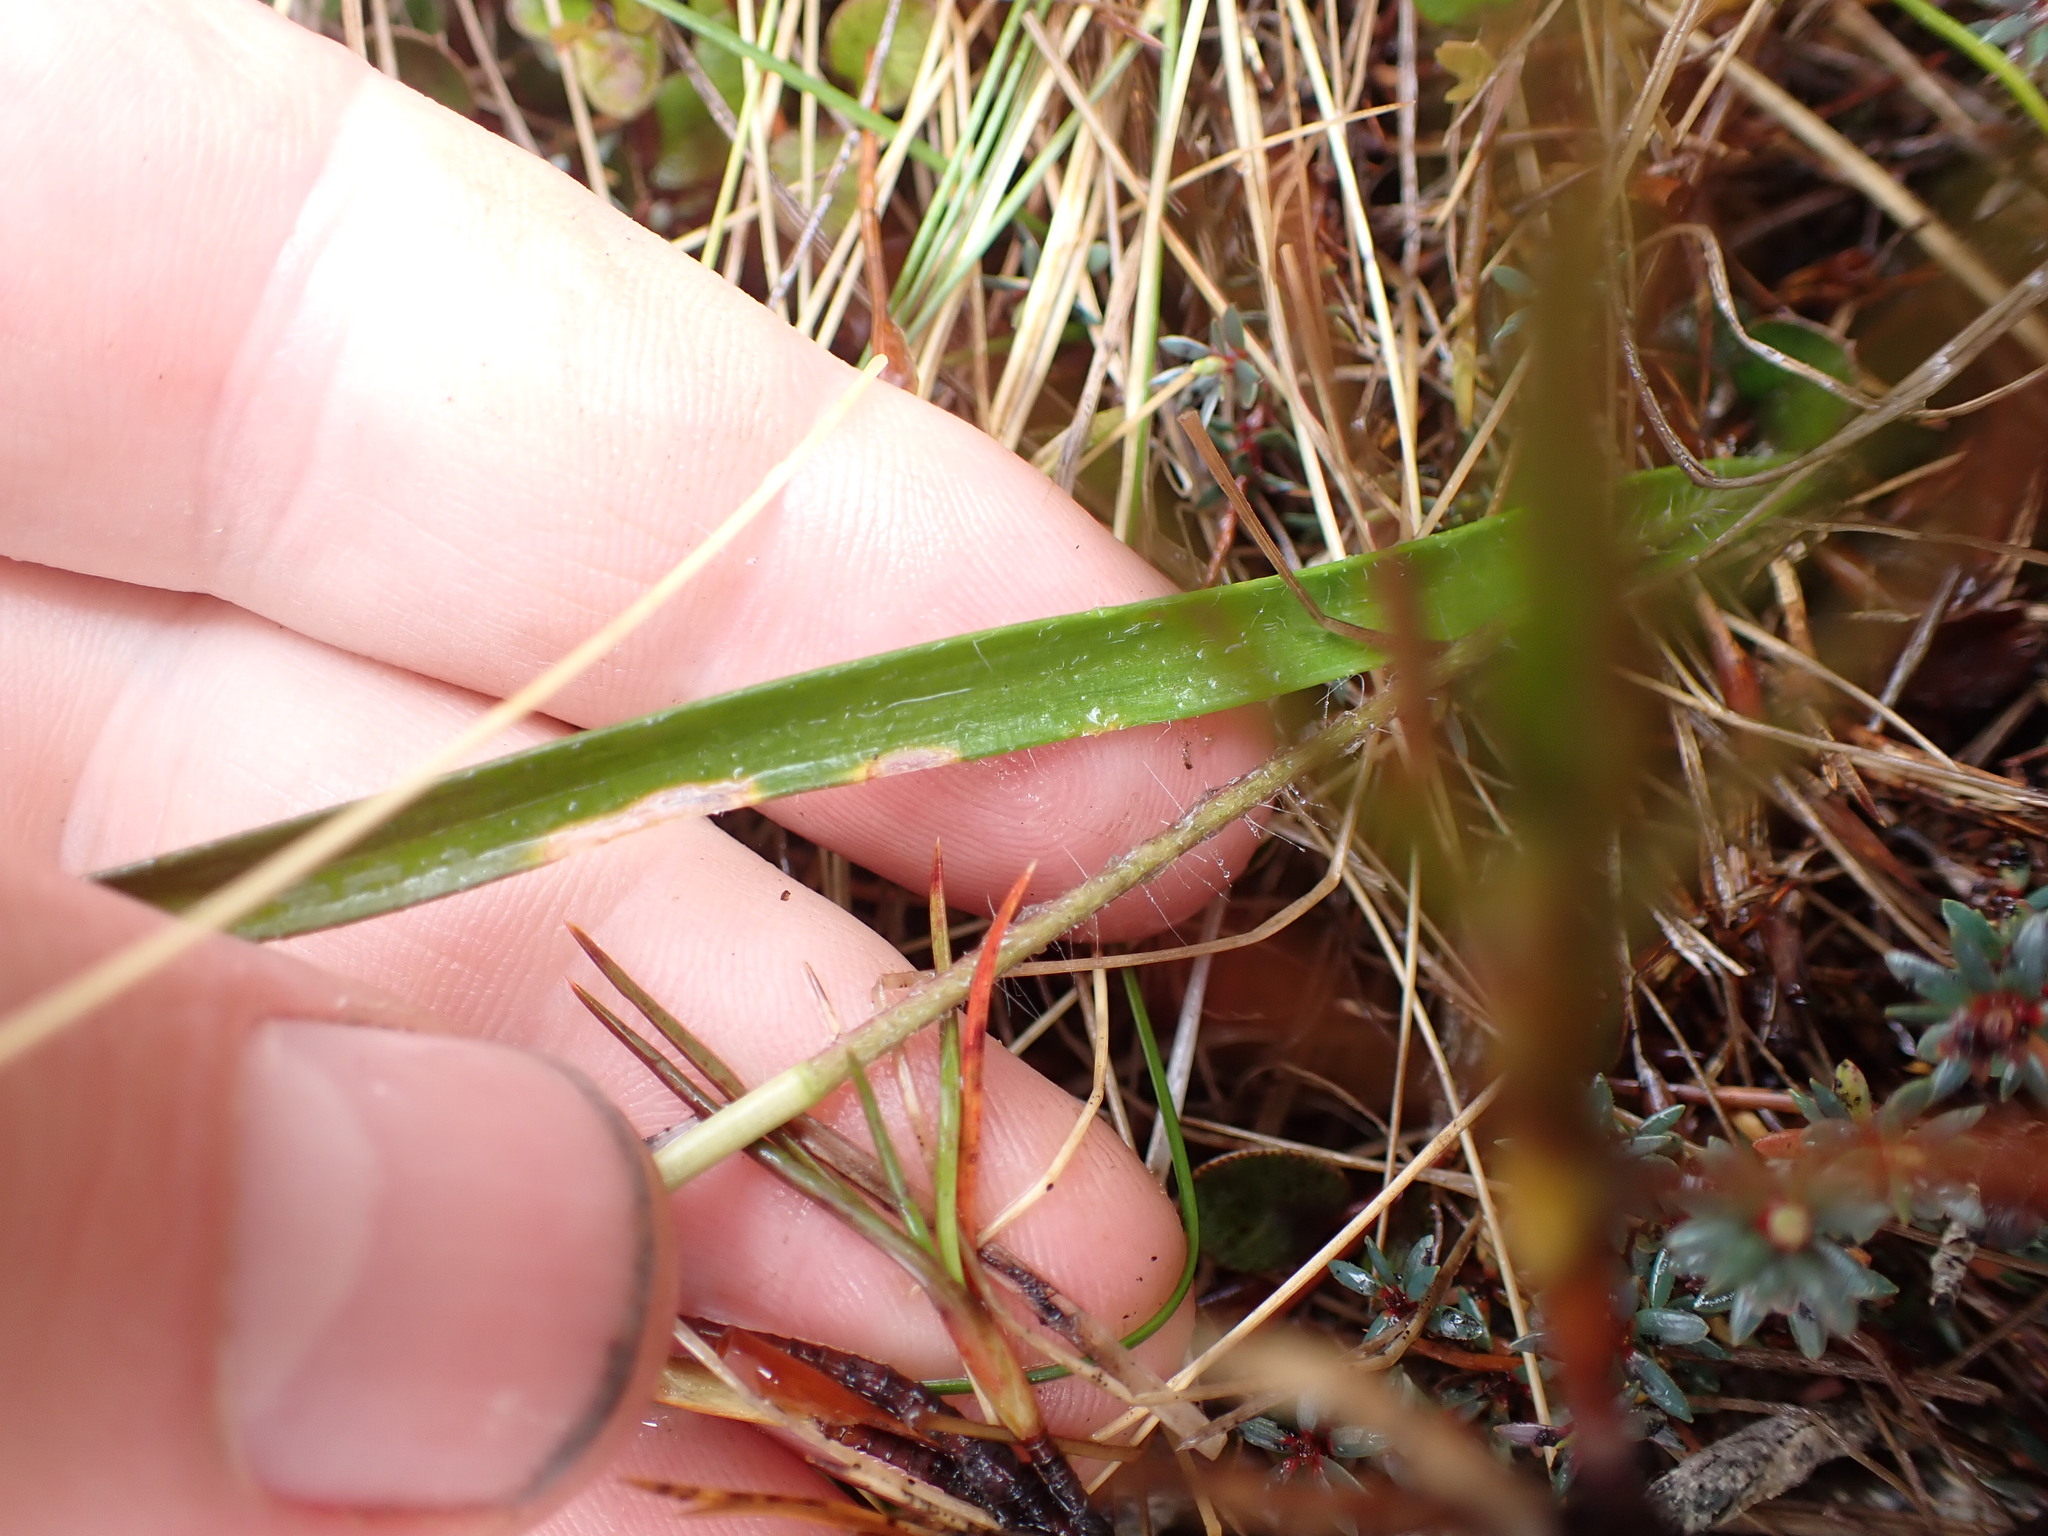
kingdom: Plantae
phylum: Tracheophyta
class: Liliopsida
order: Asparagales
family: Orchidaceae
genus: Caladenia
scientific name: Caladenia lyallii
